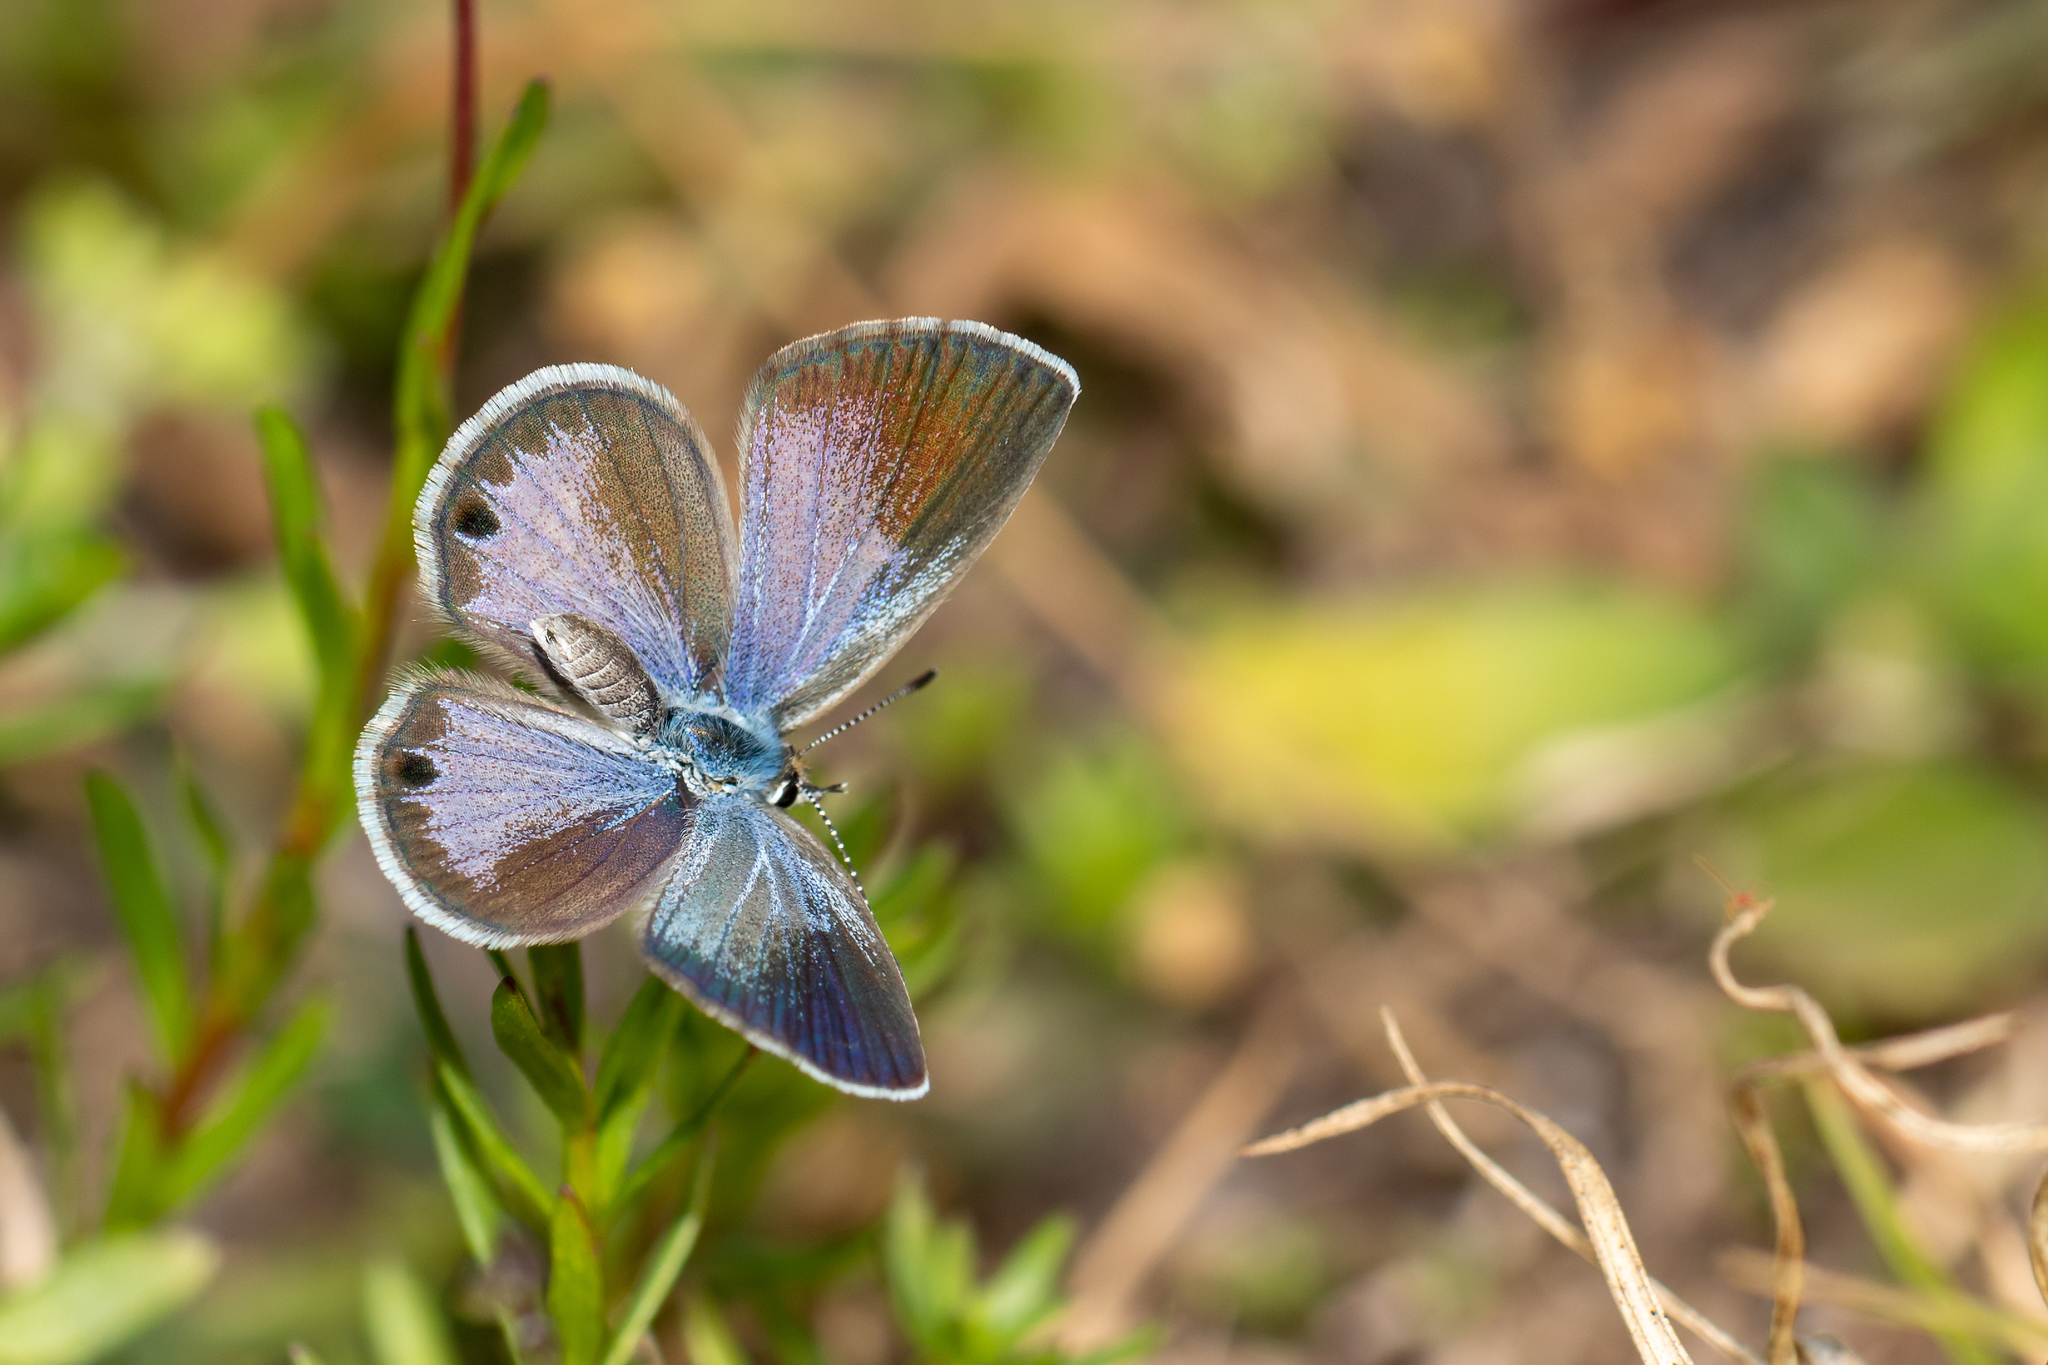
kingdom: Animalia
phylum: Arthropoda
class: Insecta
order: Lepidoptera
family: Lycaenidae
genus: Hemiargus
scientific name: Hemiargus ceraunus
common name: Ceraunus blue
